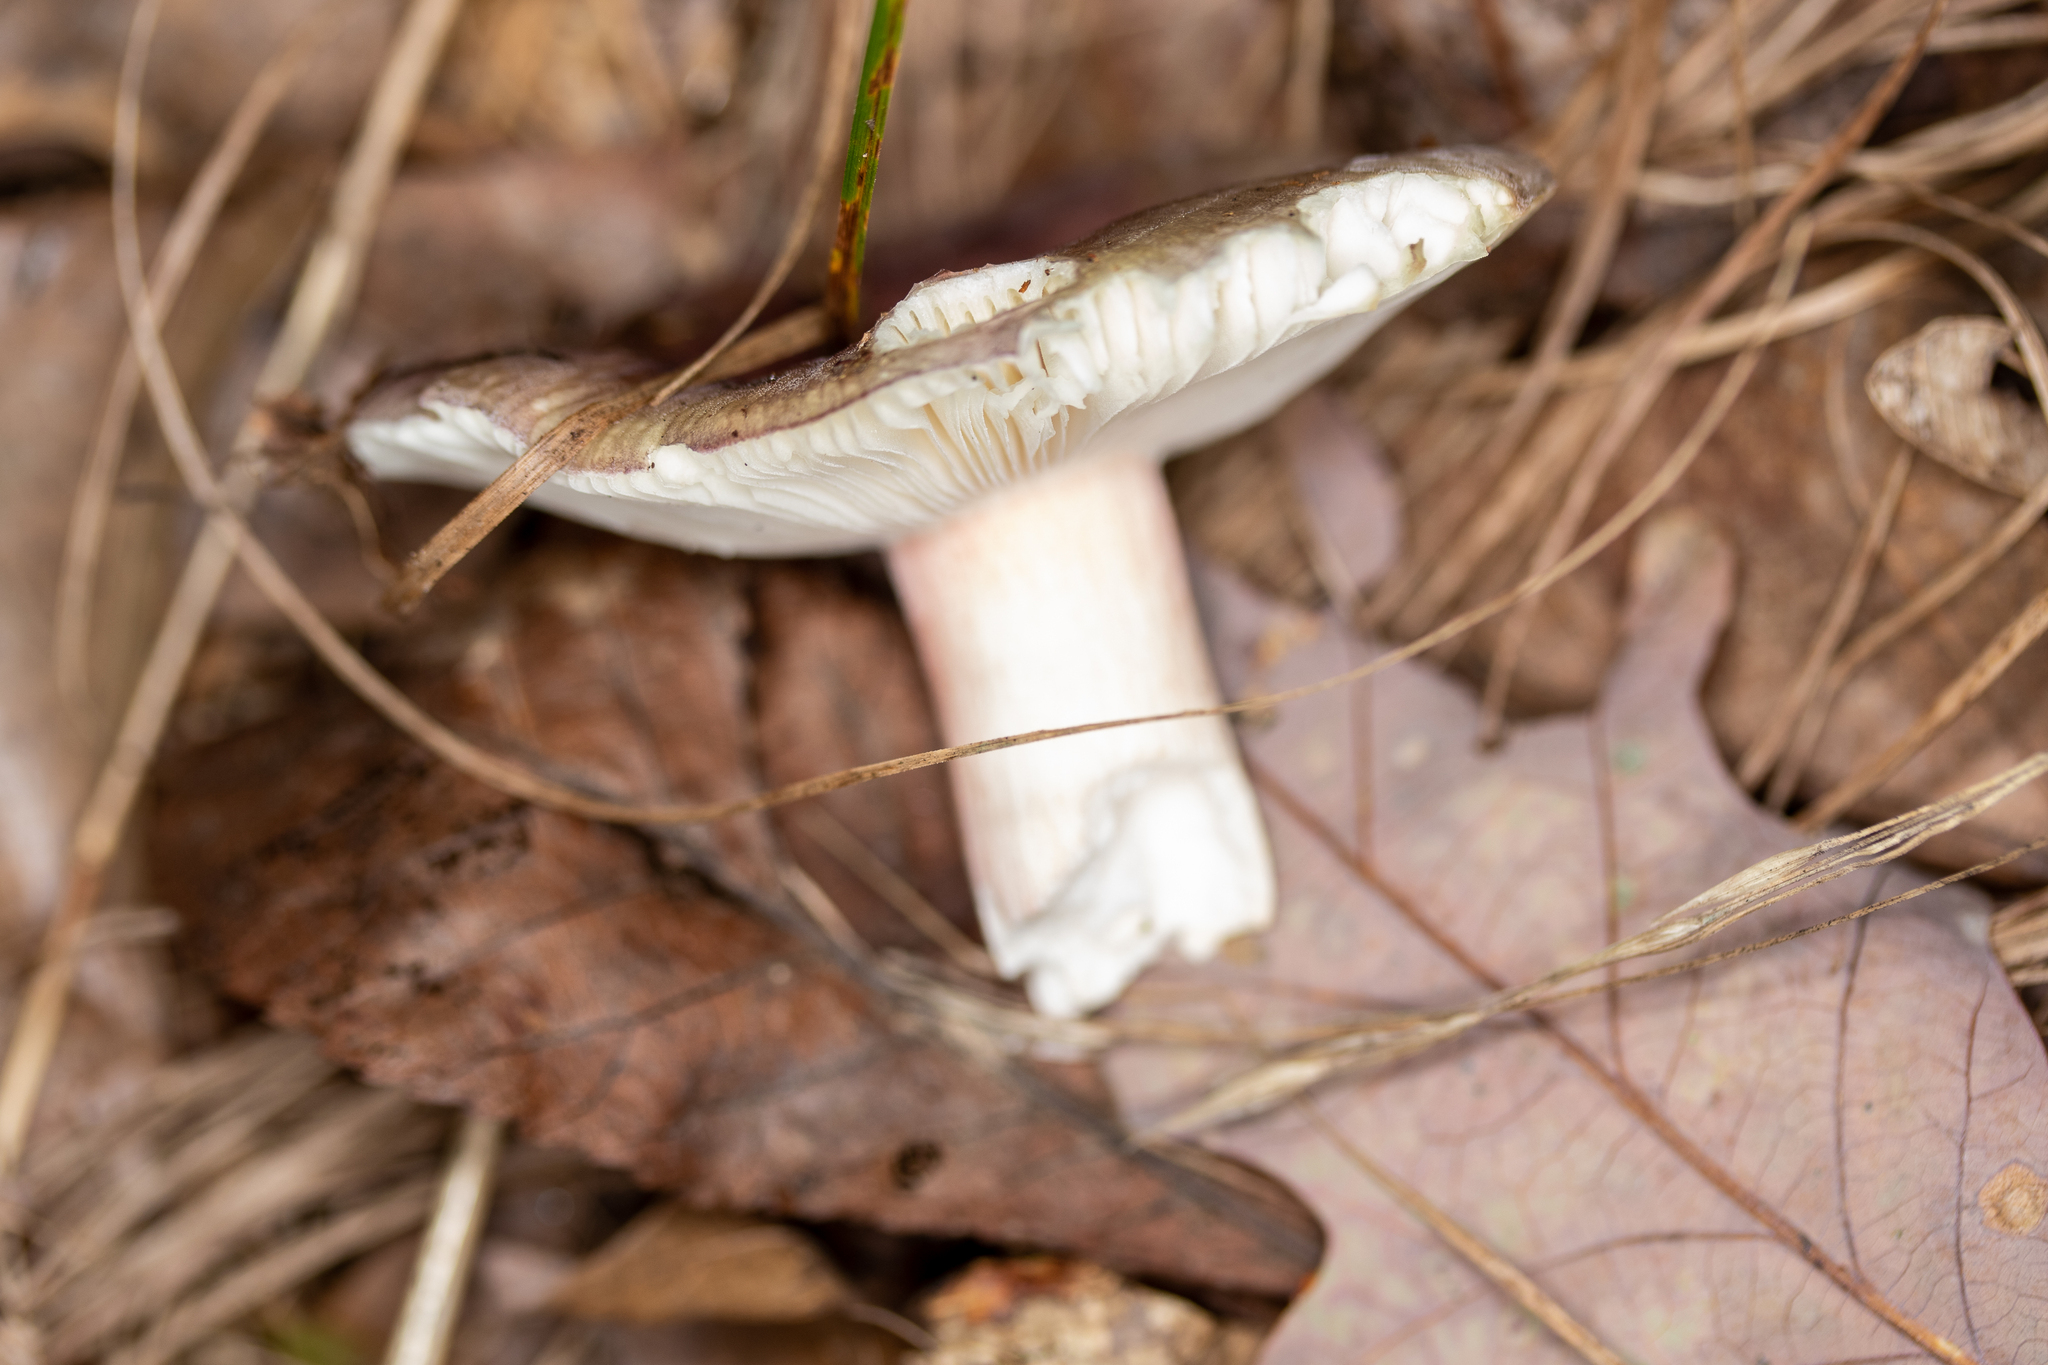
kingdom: Fungi
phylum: Basidiomycota
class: Agaricomycetes
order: Russulales
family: Russulaceae
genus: Russula
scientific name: Russula mariae
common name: Purple-bloom russula
